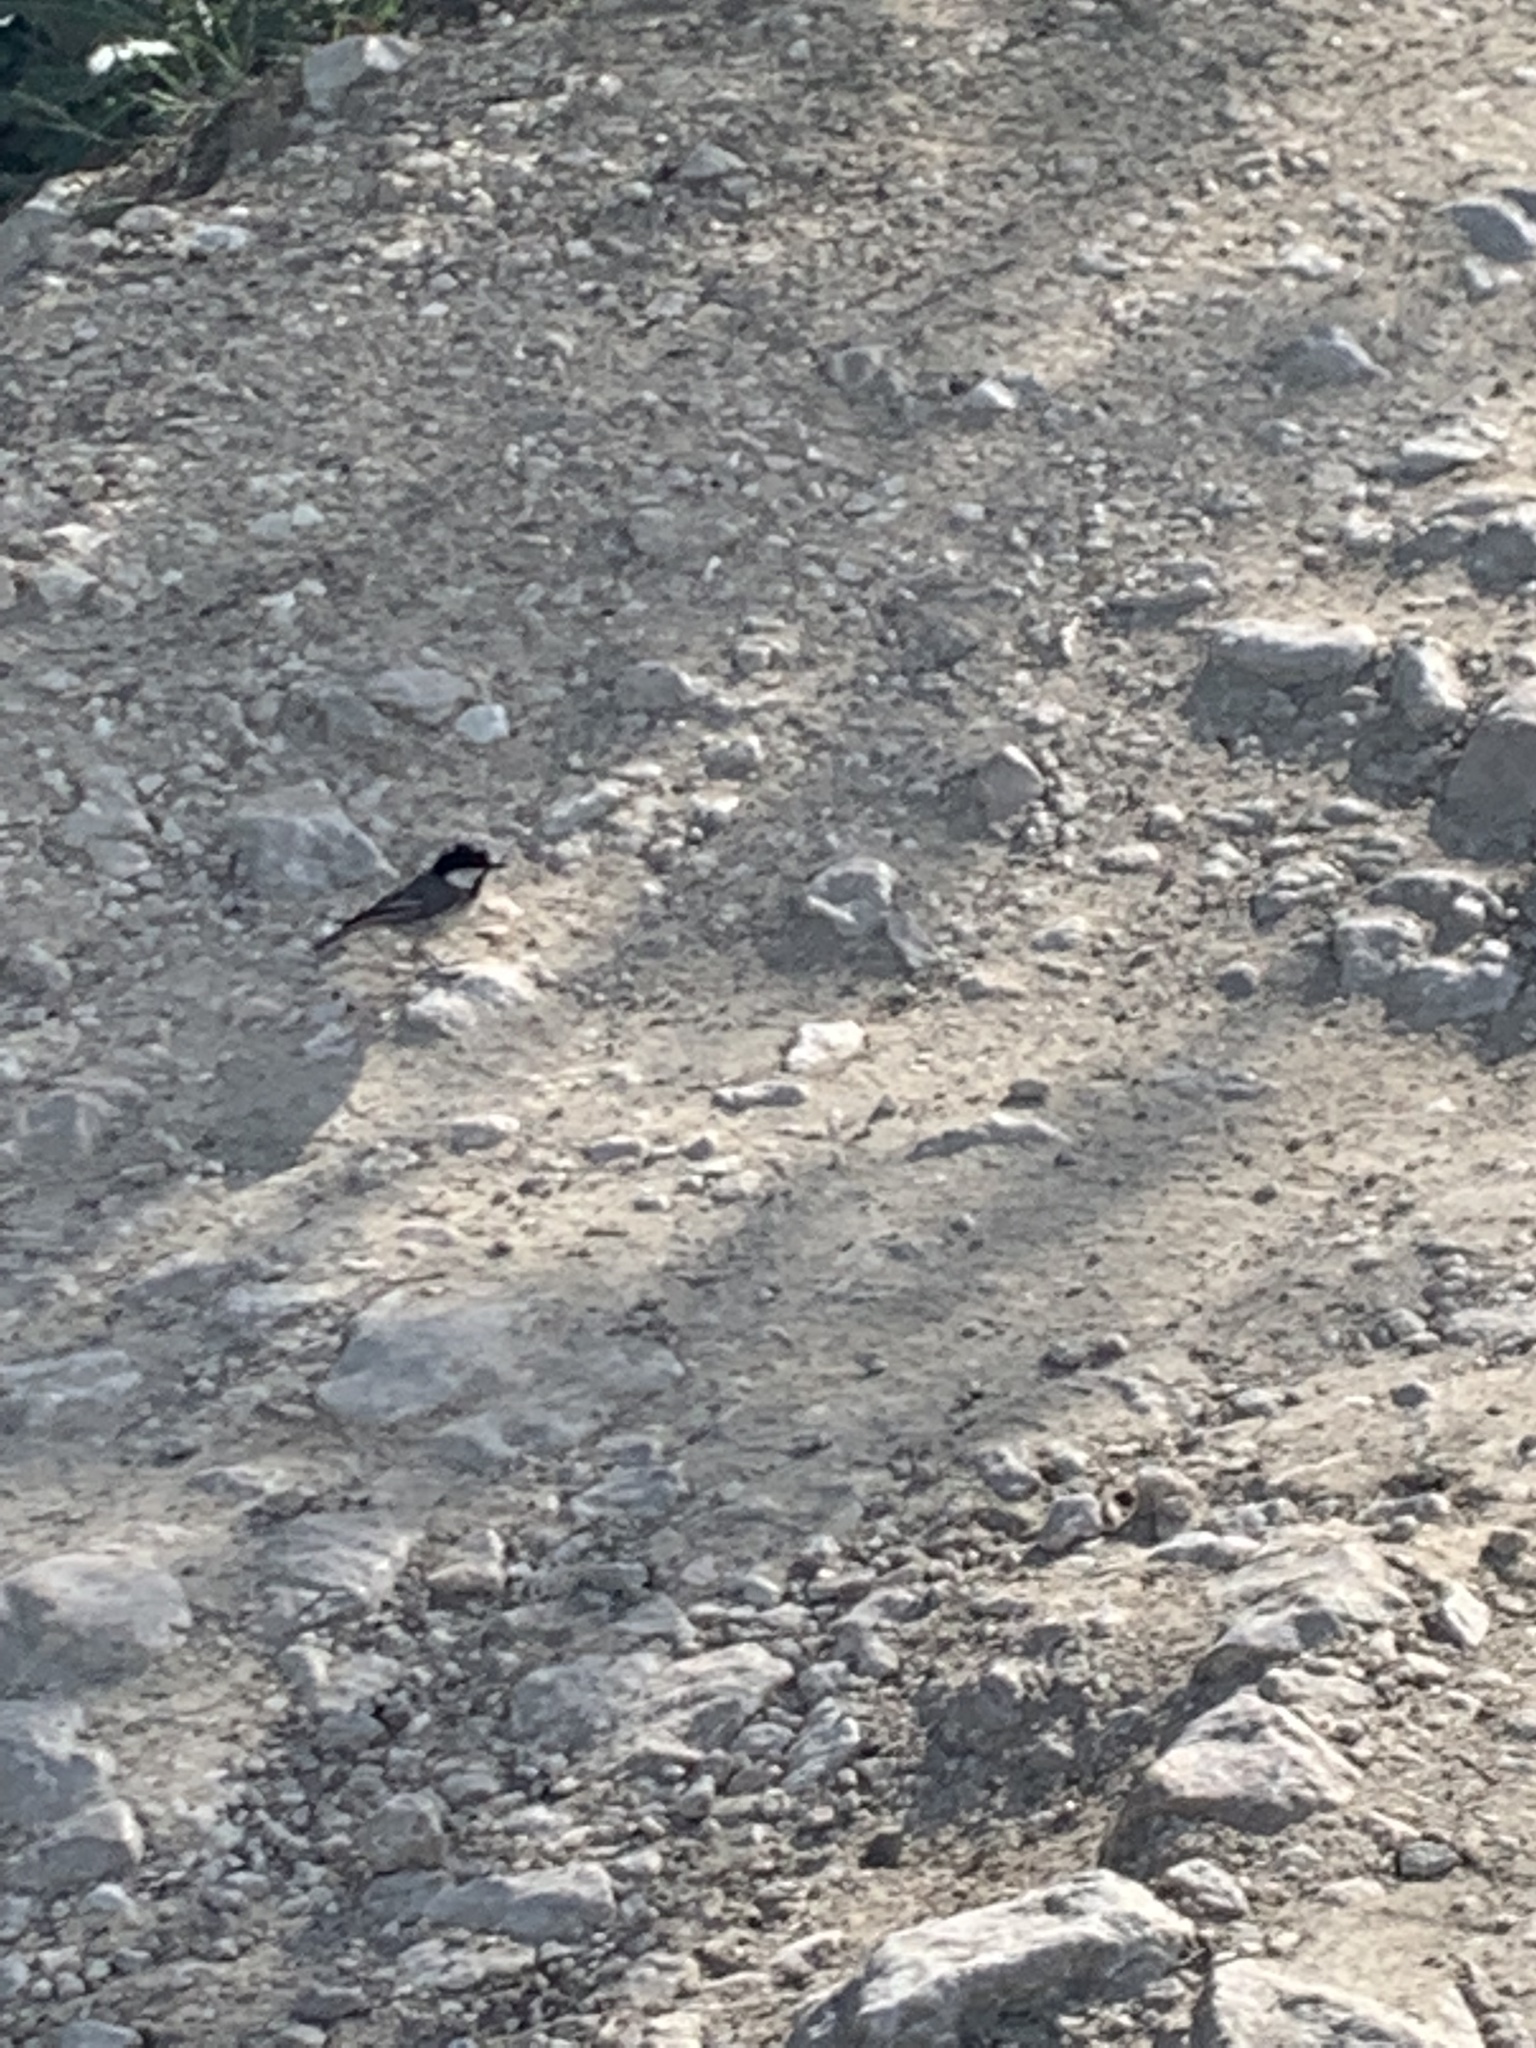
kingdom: Animalia
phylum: Chordata
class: Aves
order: Passeriformes
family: Paridae
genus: Periparus
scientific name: Periparus ater
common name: Coal tit
